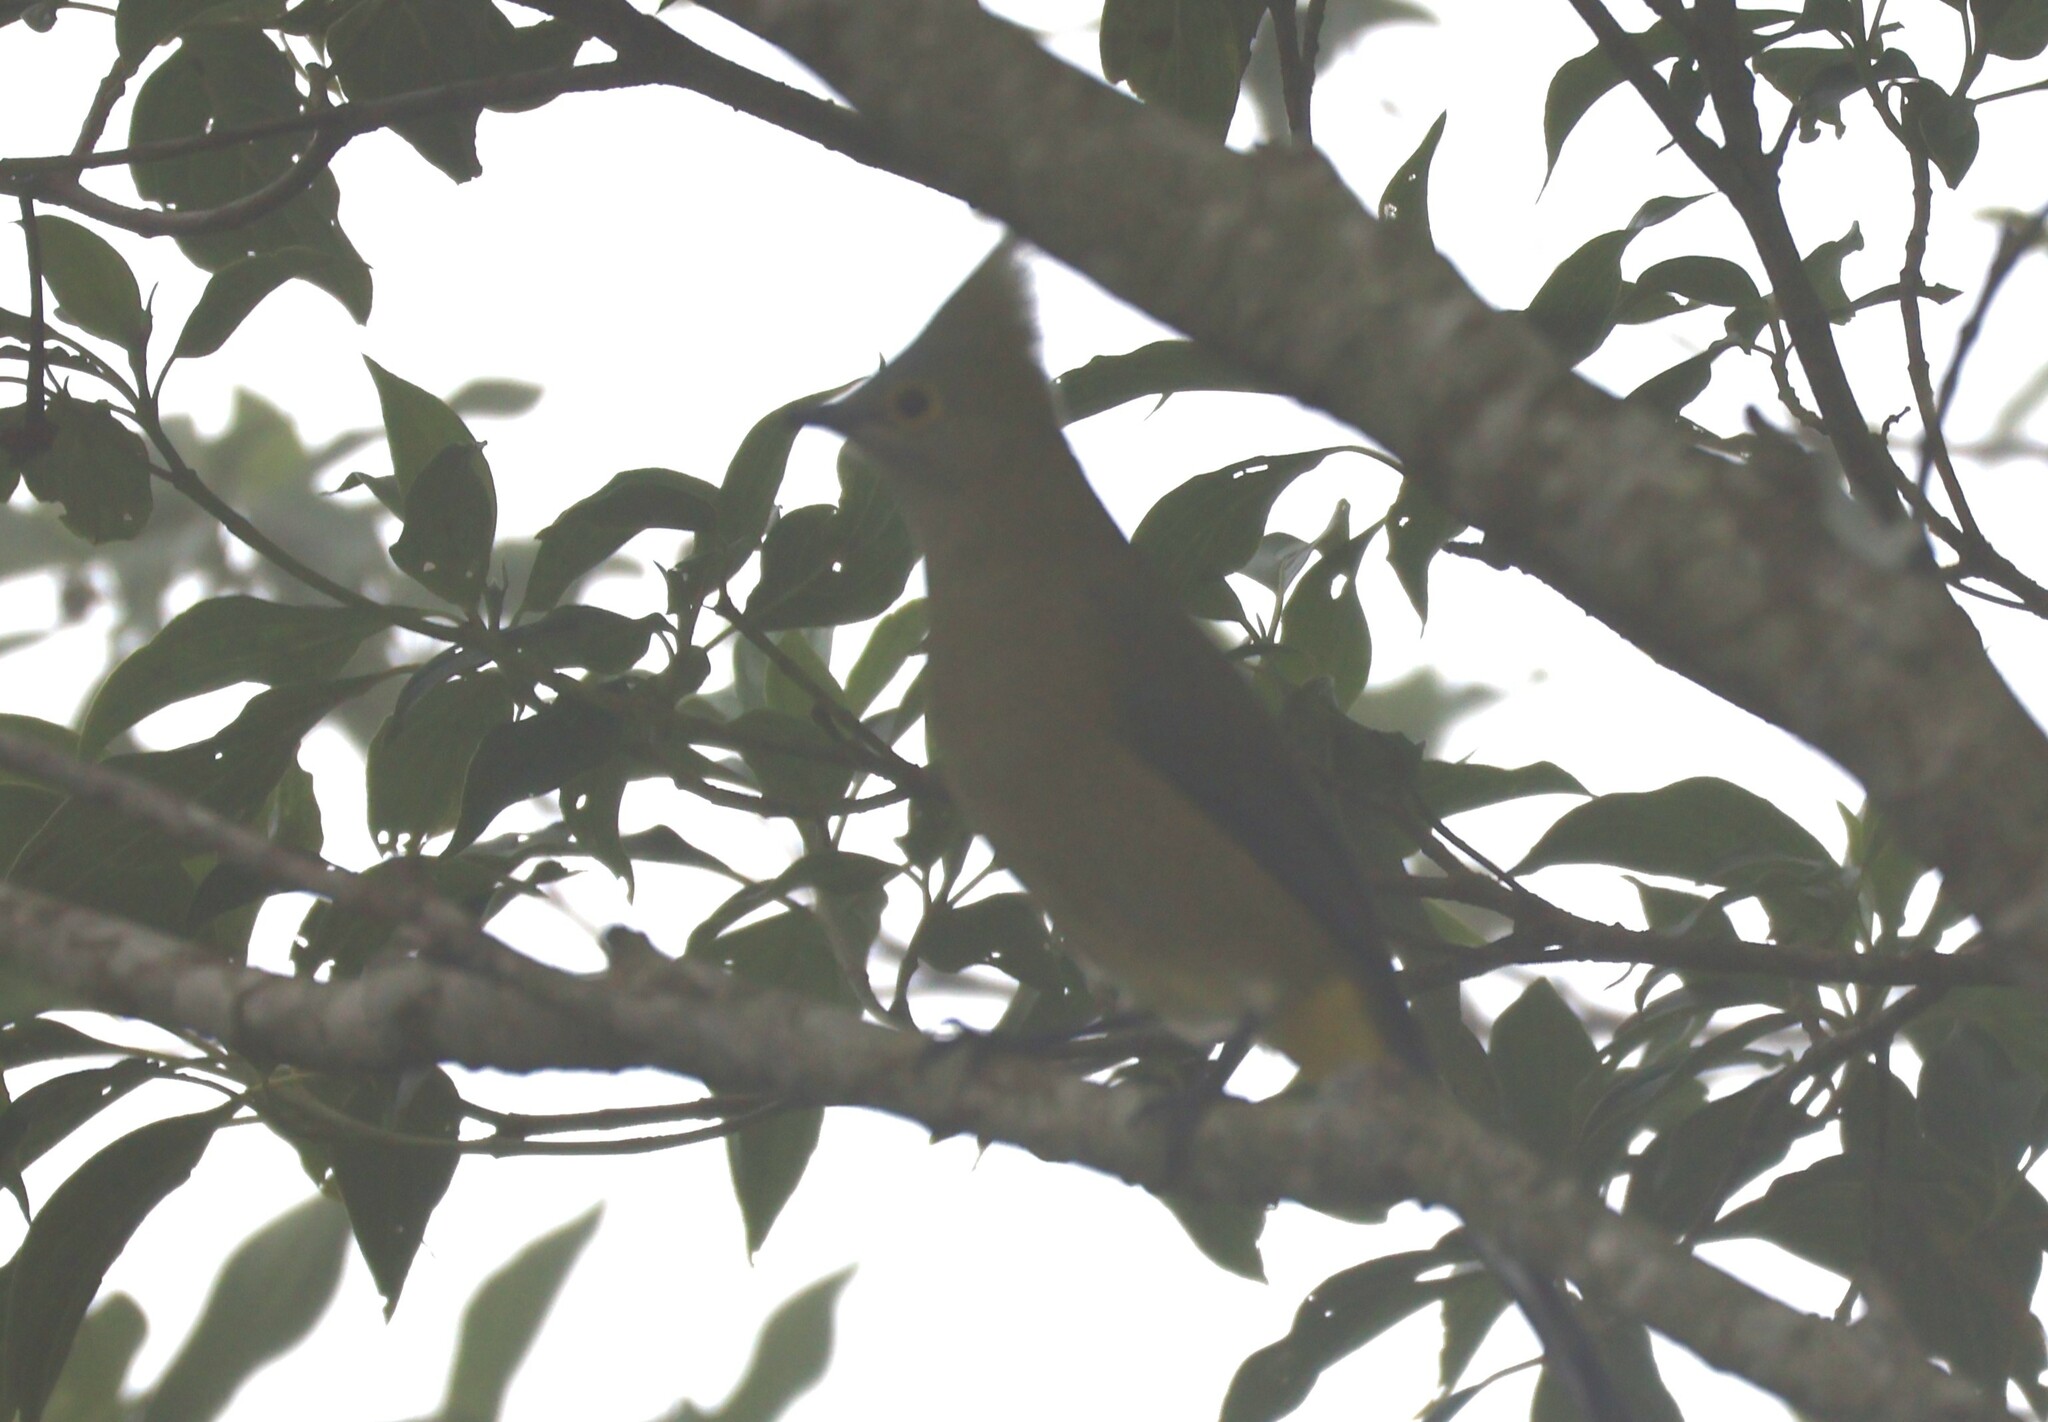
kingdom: Animalia
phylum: Chordata
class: Aves
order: Passeriformes
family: Ptilogonatidae
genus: Ptilogonys
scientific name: Ptilogonys caudatus
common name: Long-tailed silky-flycatcher
